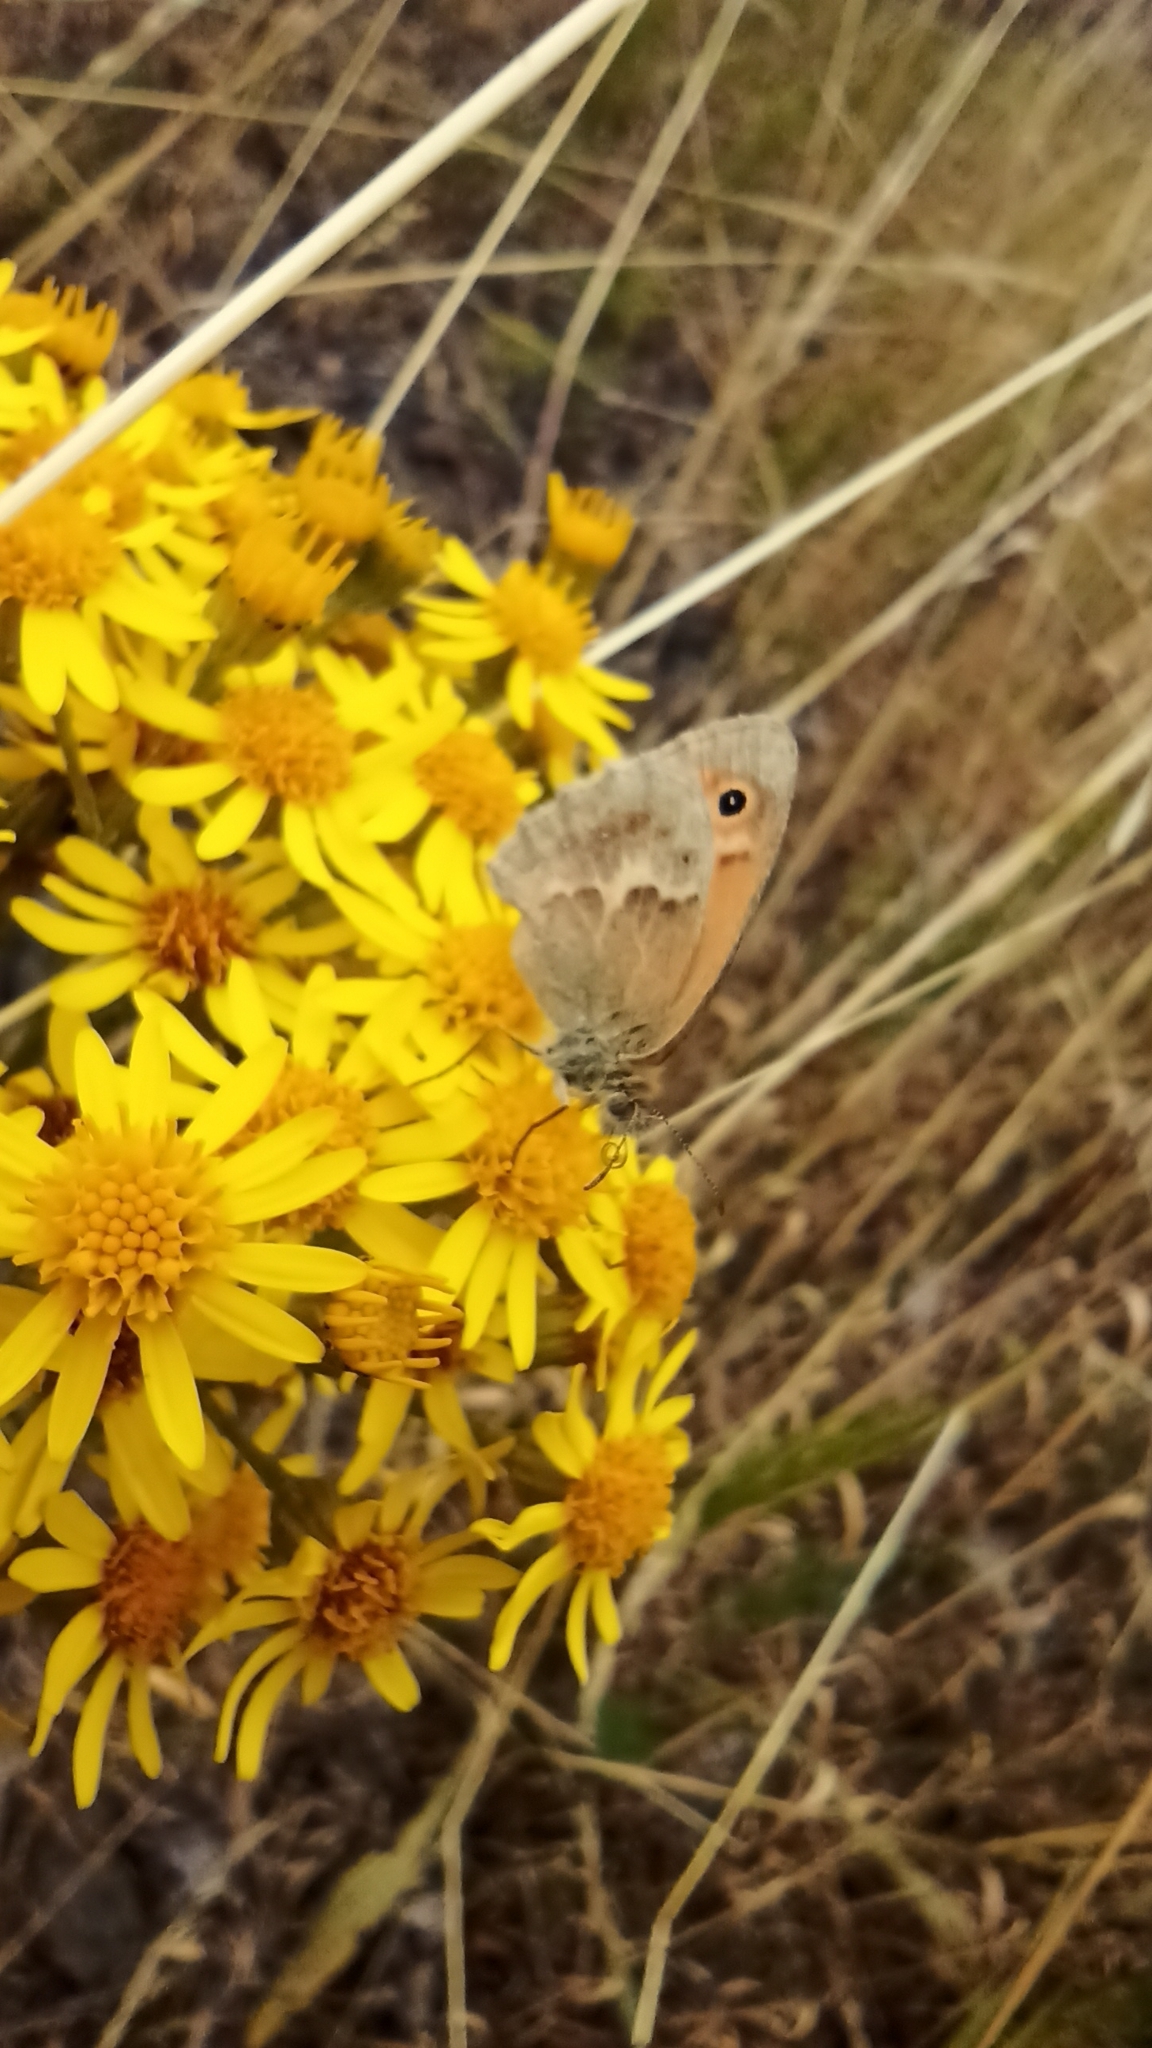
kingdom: Animalia
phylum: Arthropoda
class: Insecta
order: Lepidoptera
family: Nymphalidae
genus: Coenonympha
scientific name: Coenonympha pamphilus
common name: Small heath
